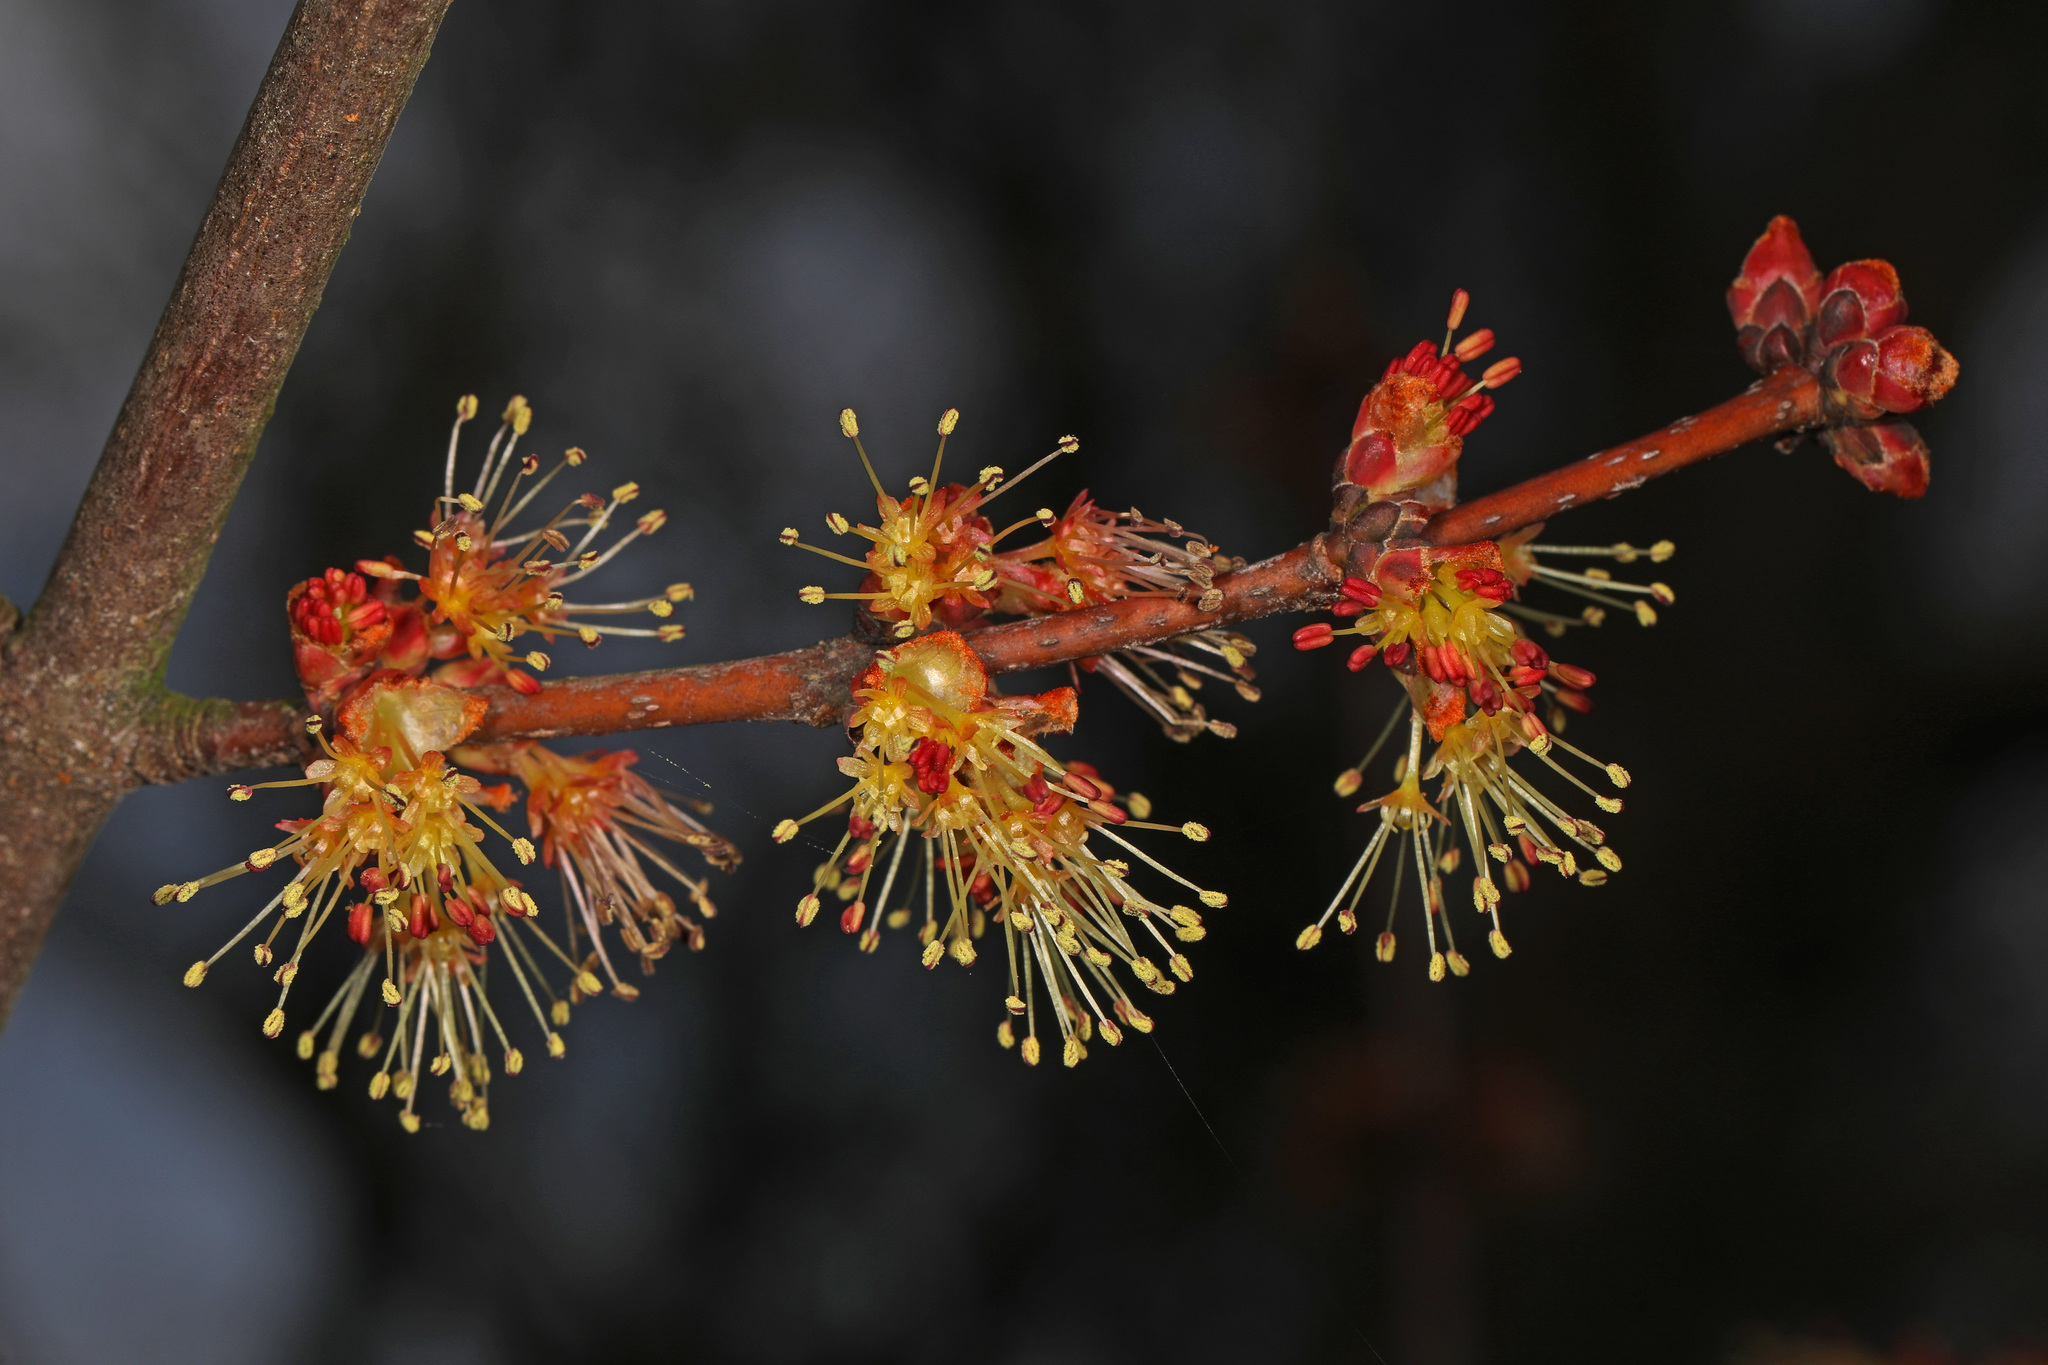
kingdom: Plantae
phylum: Tracheophyta
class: Magnoliopsida
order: Sapindales
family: Sapindaceae
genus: Acer
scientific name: Acer rubrum
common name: Red maple
